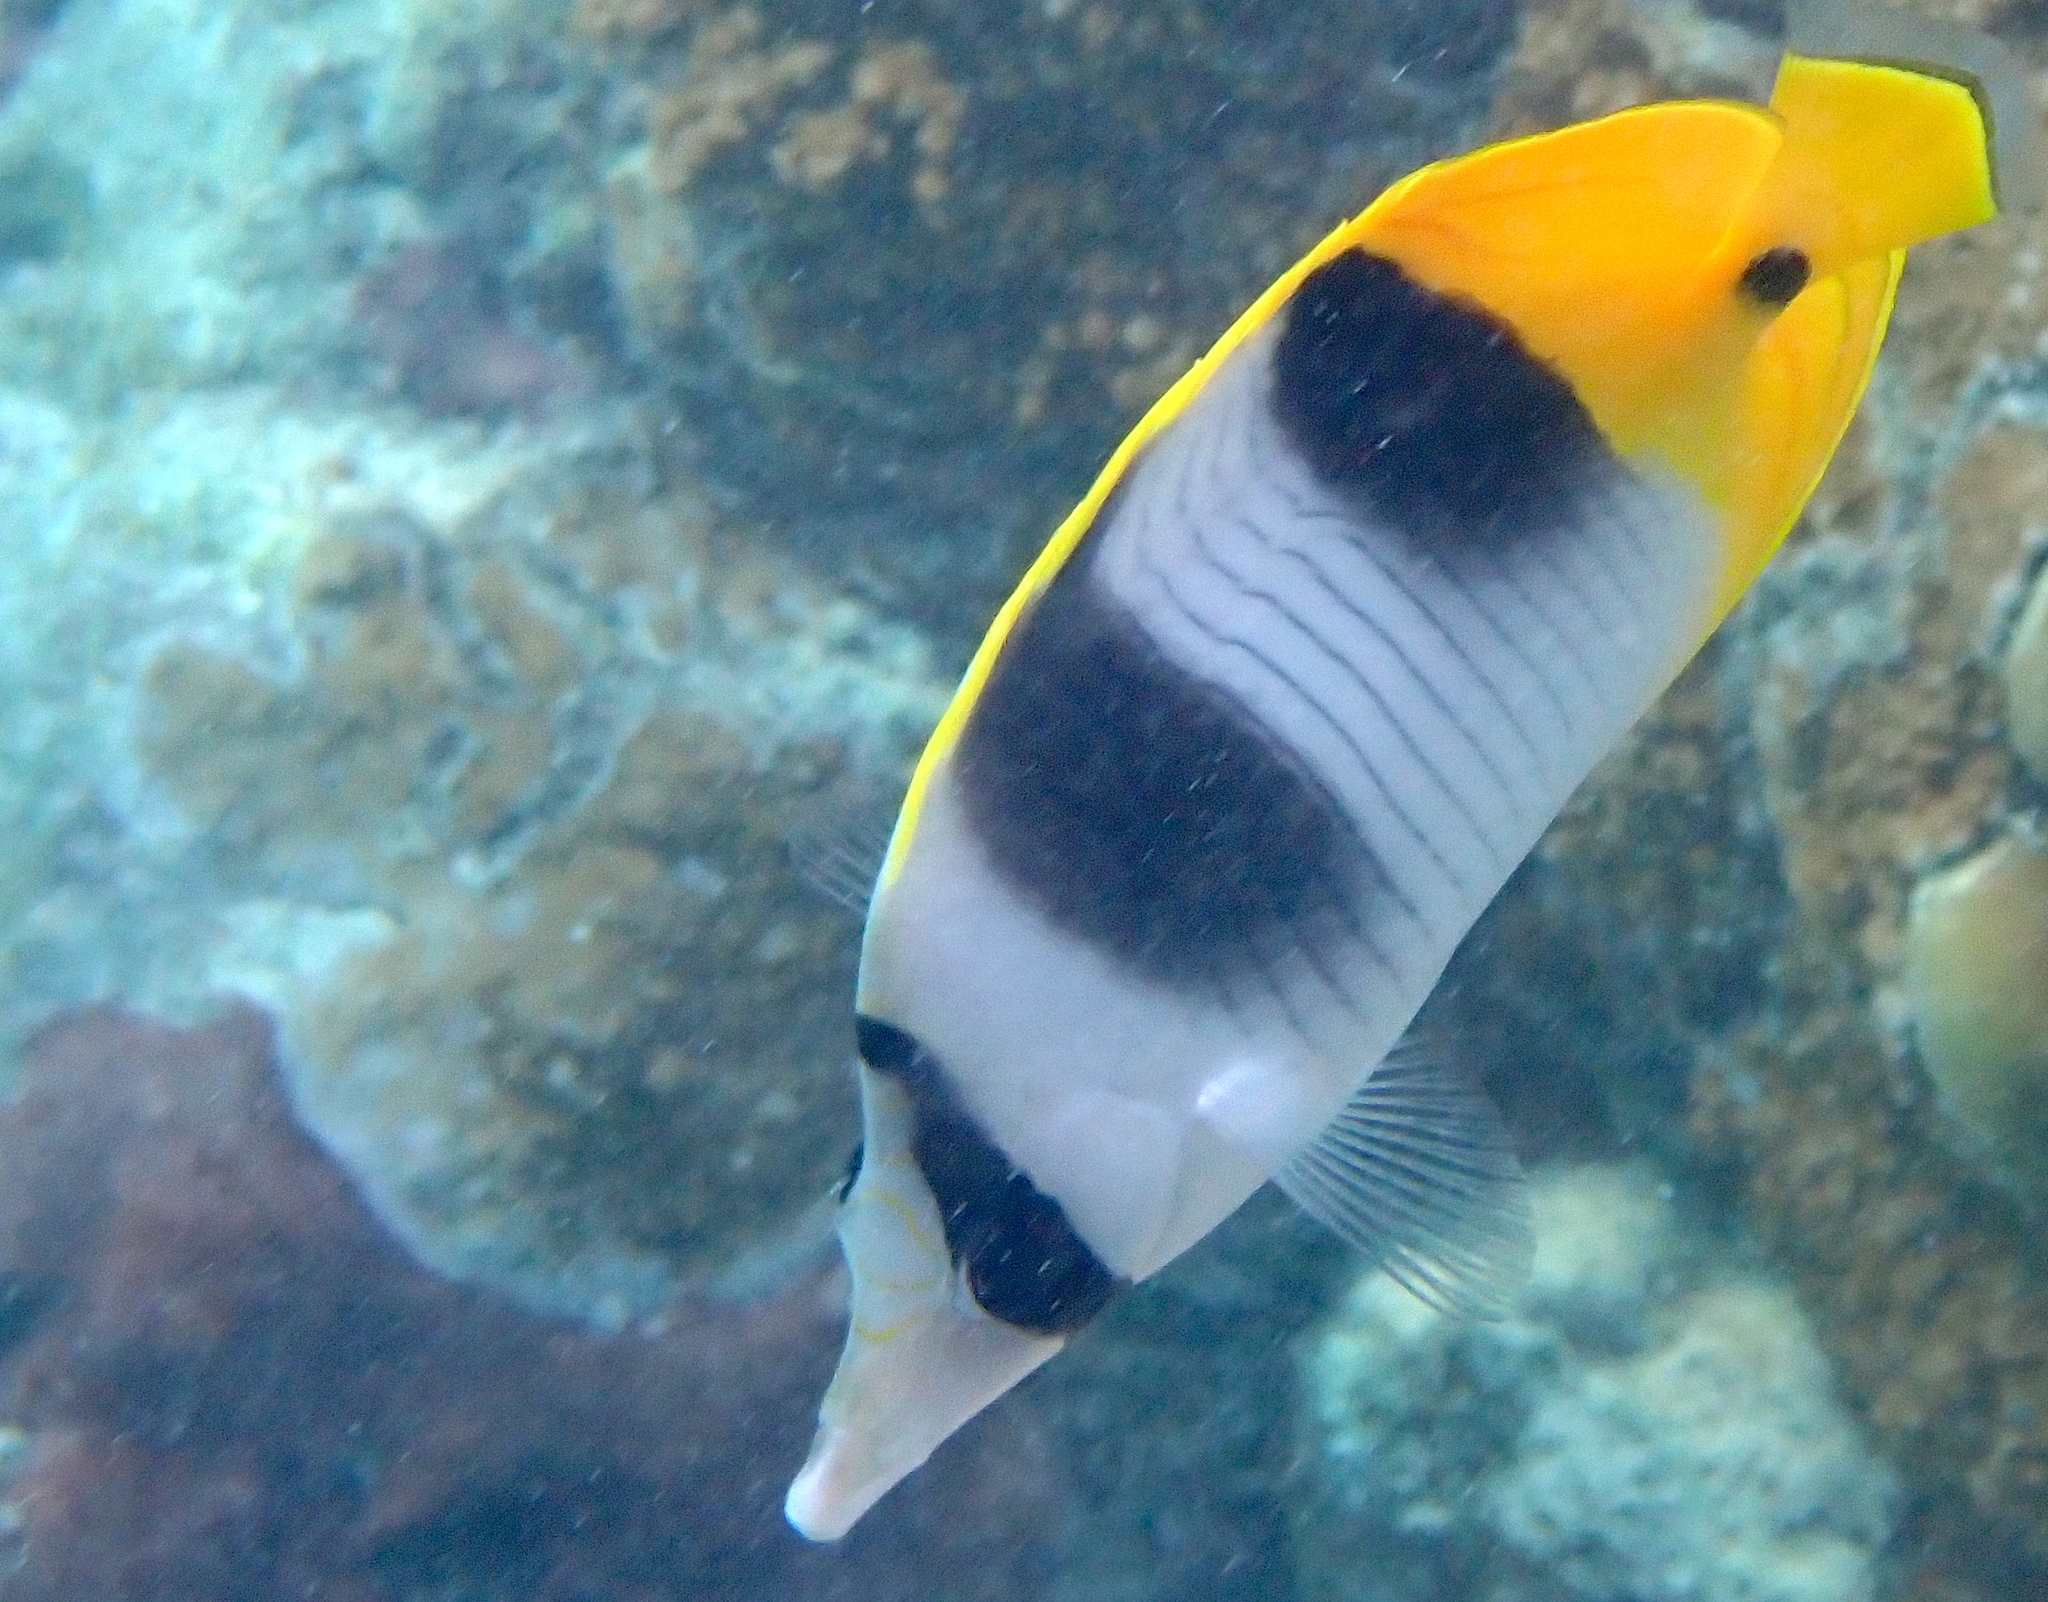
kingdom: Animalia
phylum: Chordata
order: Perciformes
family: Chaetodontidae
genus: Chaetodon
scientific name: Chaetodon ulietensis
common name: Pacific double-saddle butterflyfish
